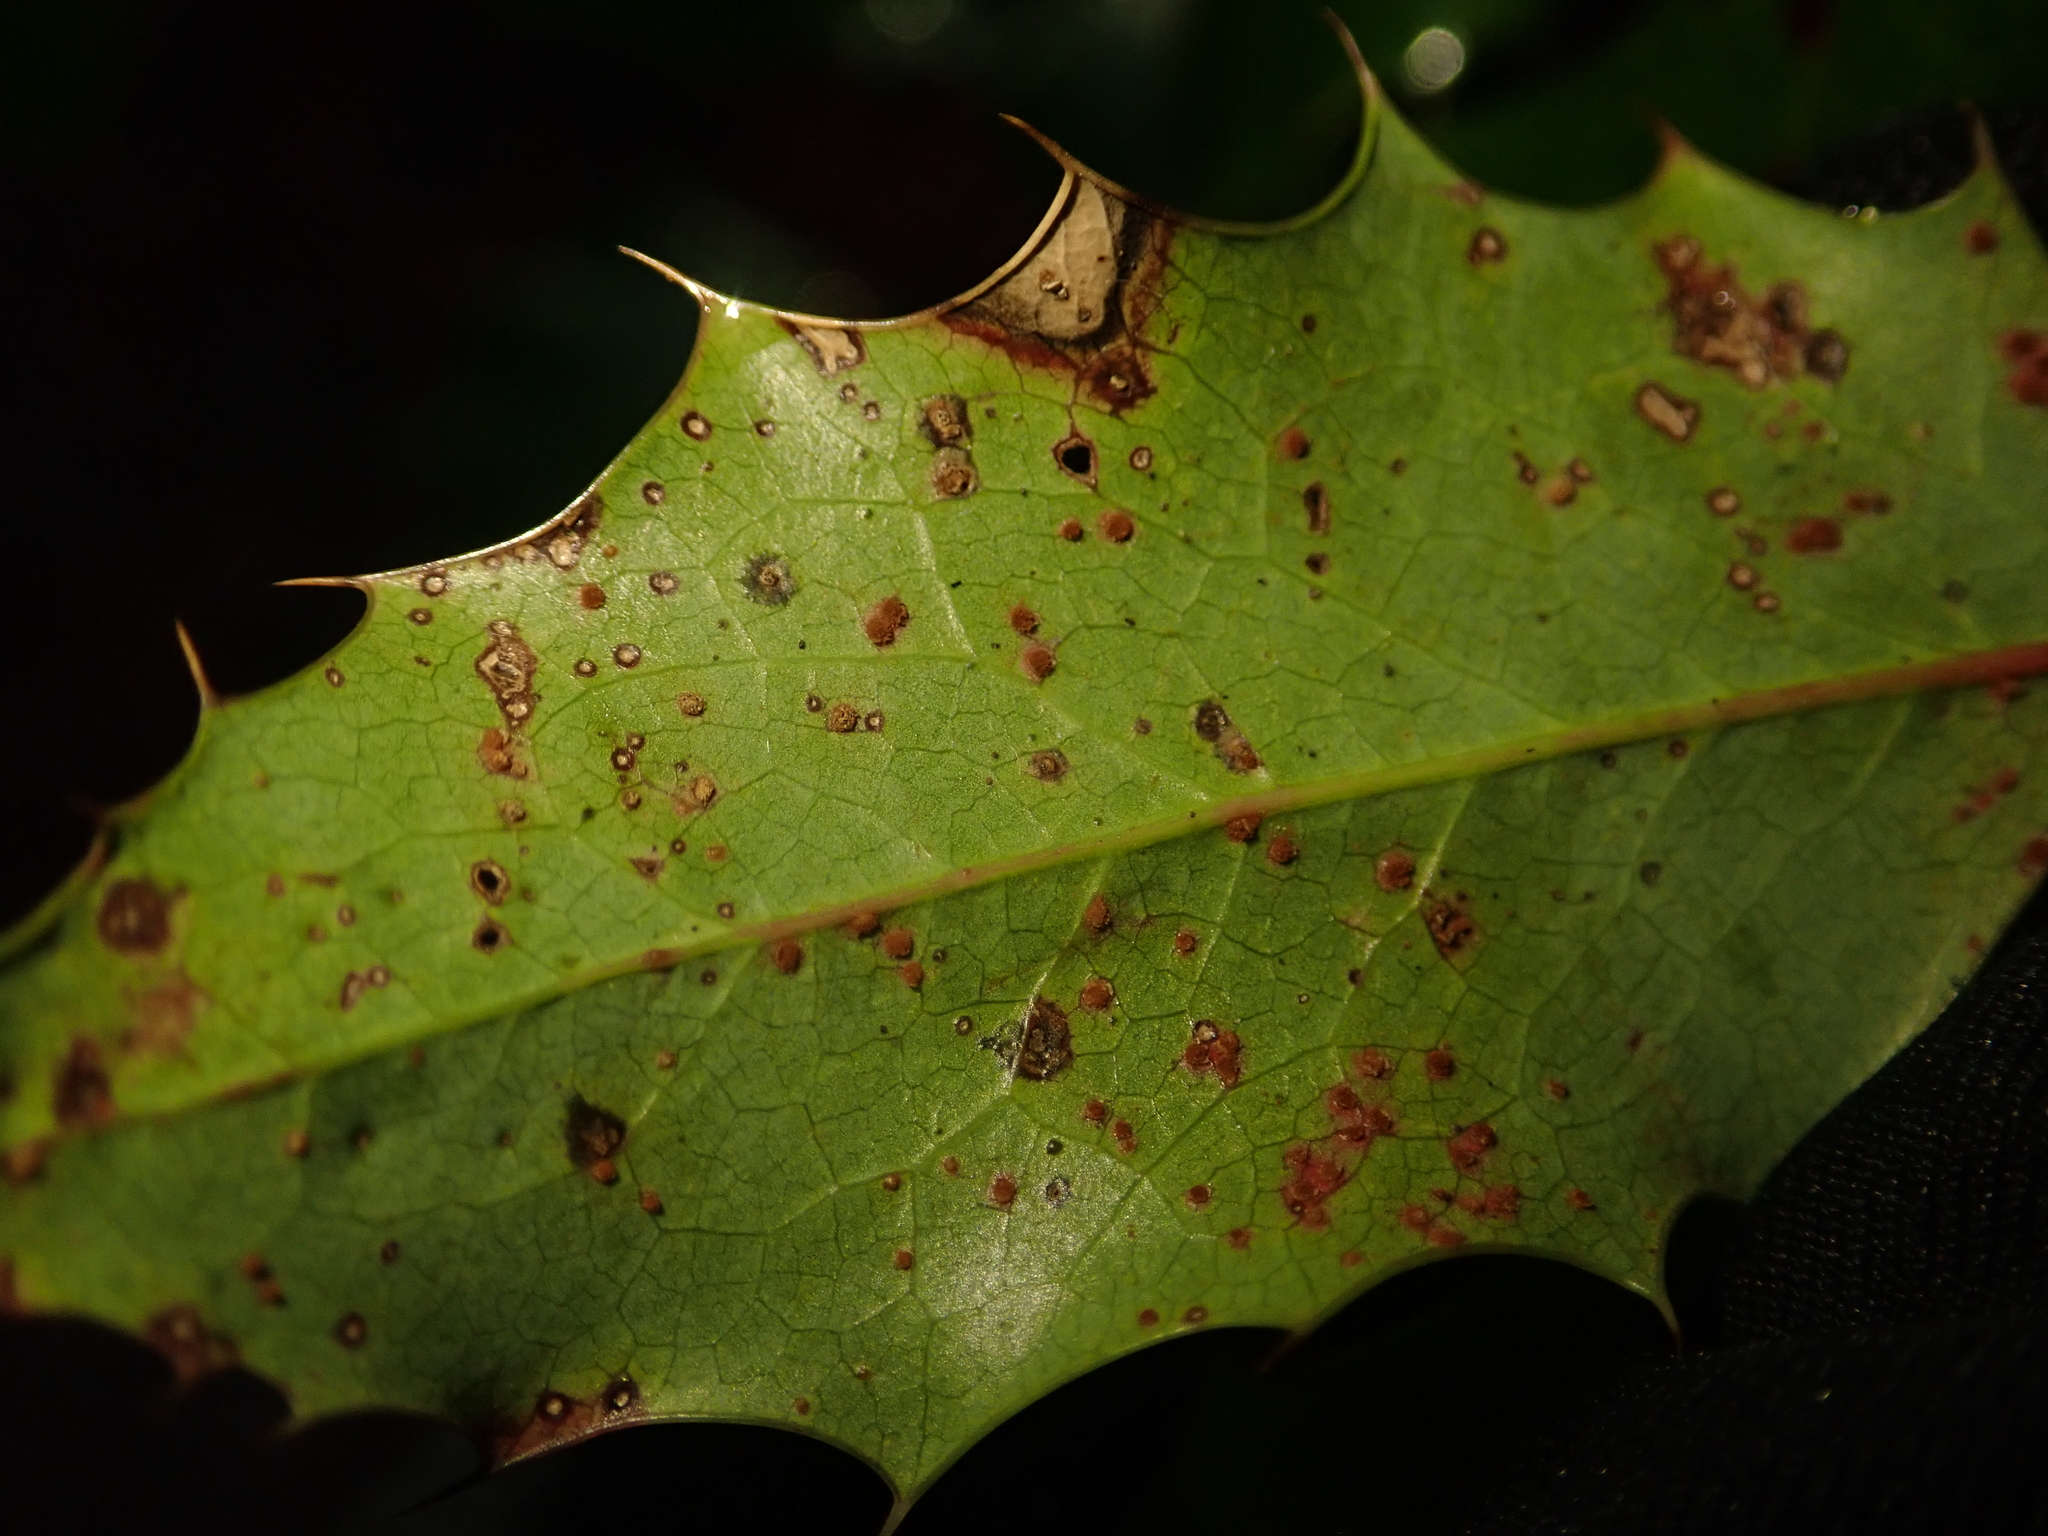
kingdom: Fungi
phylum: Basidiomycota
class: Pucciniomycetes
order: Pucciniales
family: Pucciniaceae
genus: Cumminsiella
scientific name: Cumminsiella mirabilissima
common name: Mahonia rust
